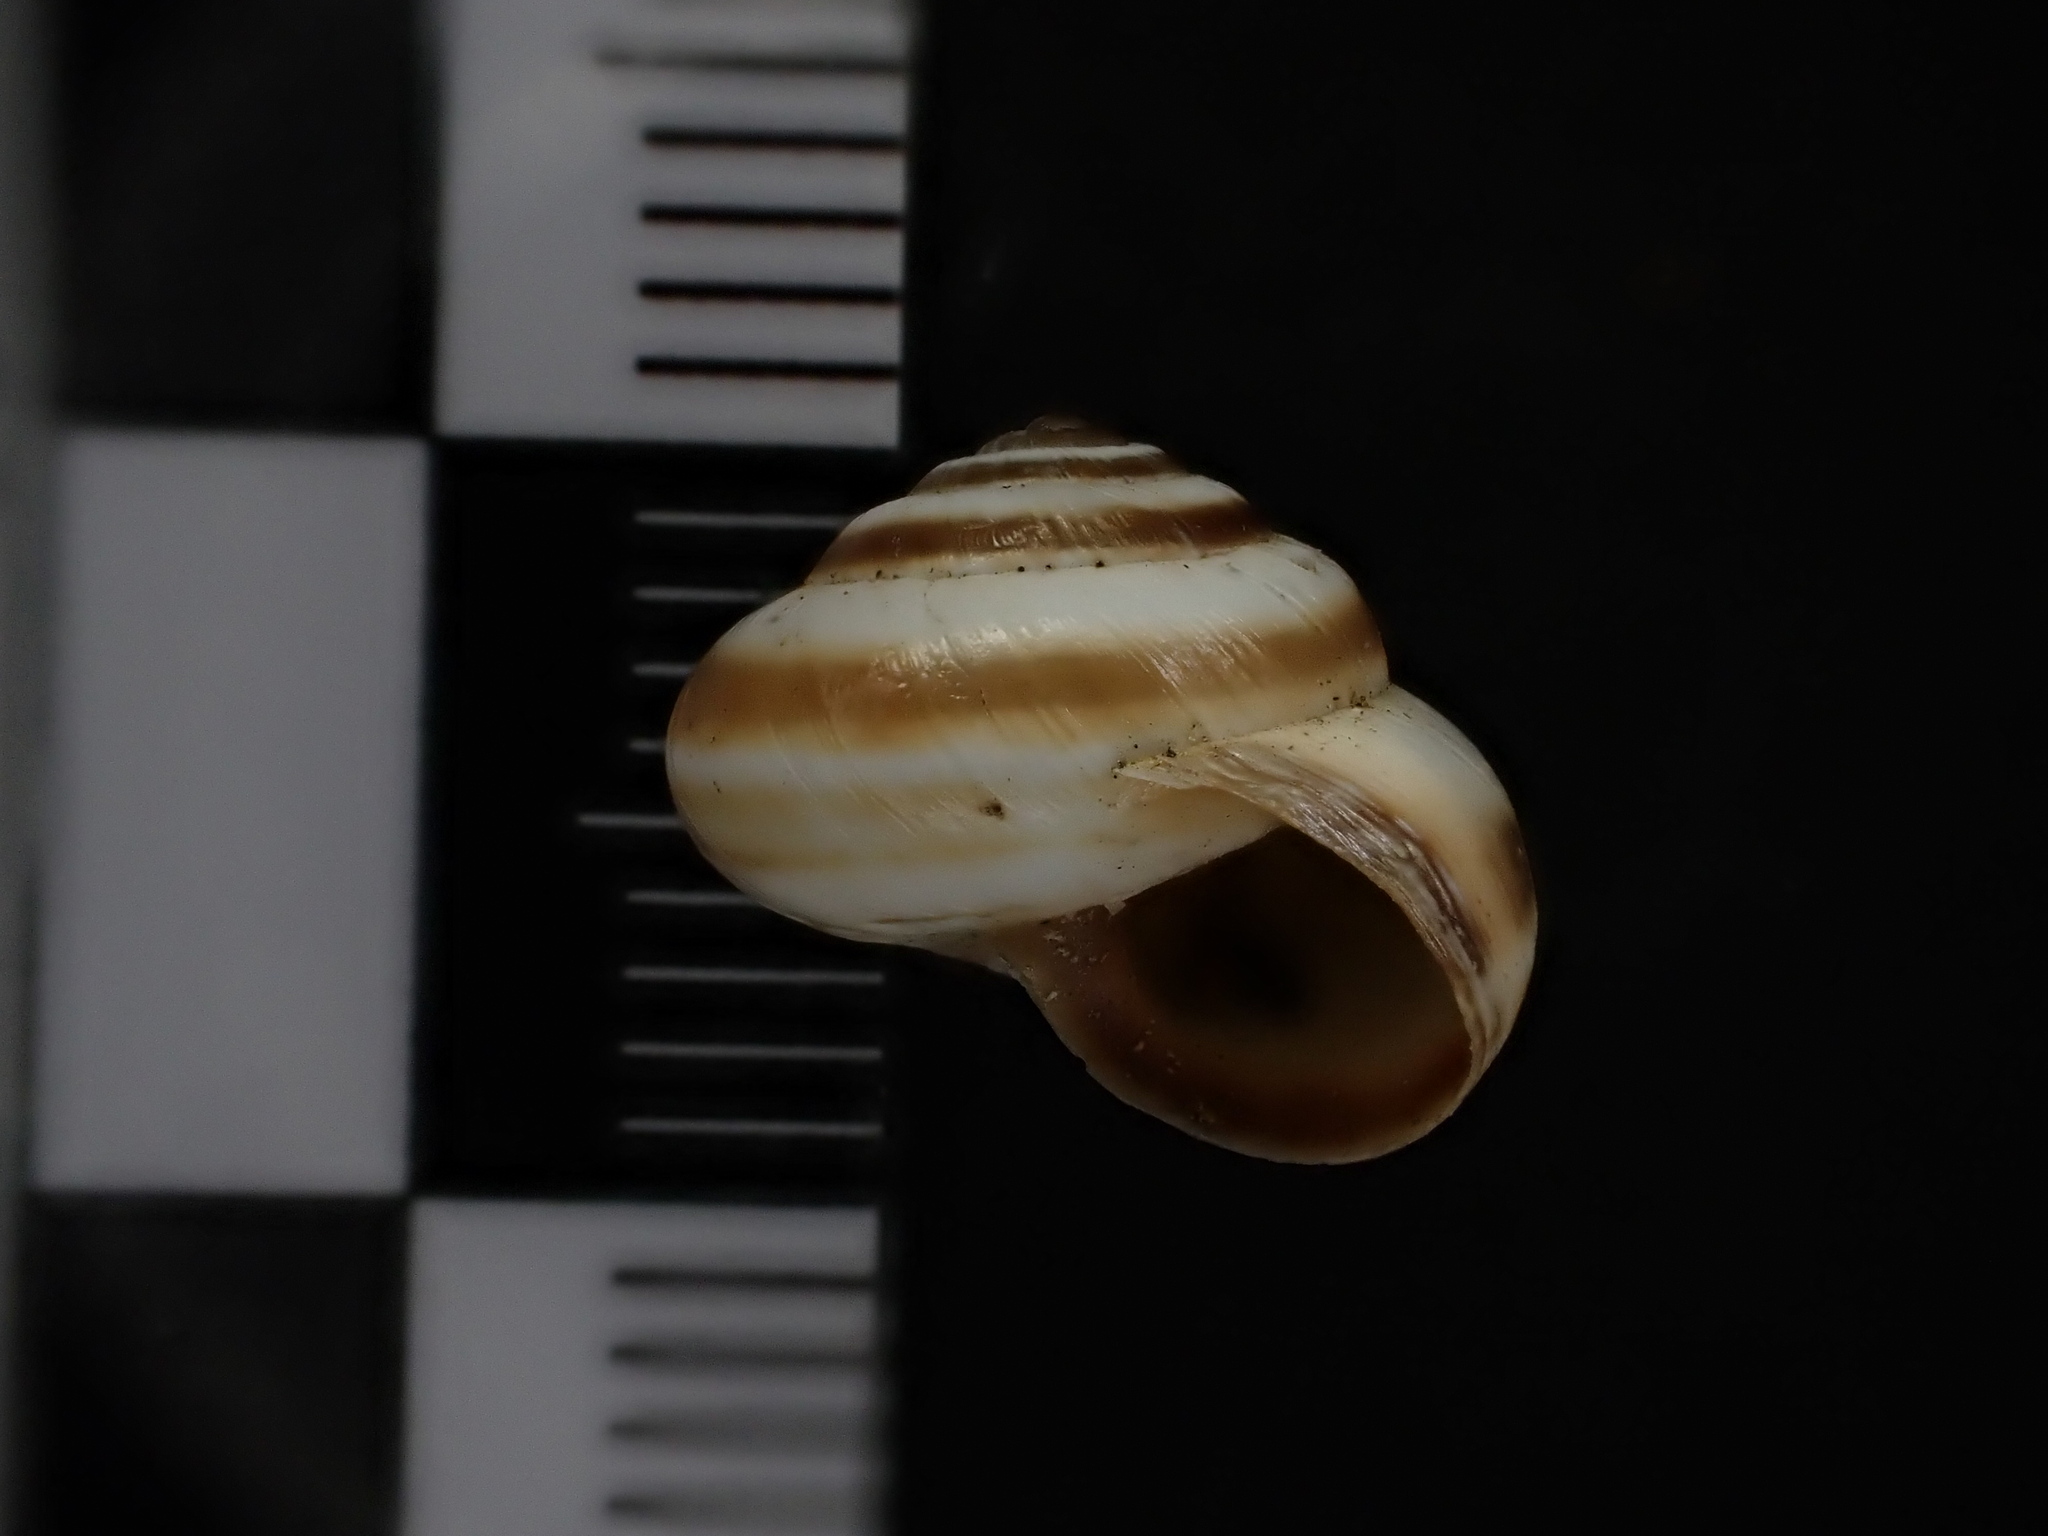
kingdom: Animalia
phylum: Mollusca
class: Gastropoda
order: Stylommatophora
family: Geomitridae
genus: Cernuella
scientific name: Cernuella virgata
